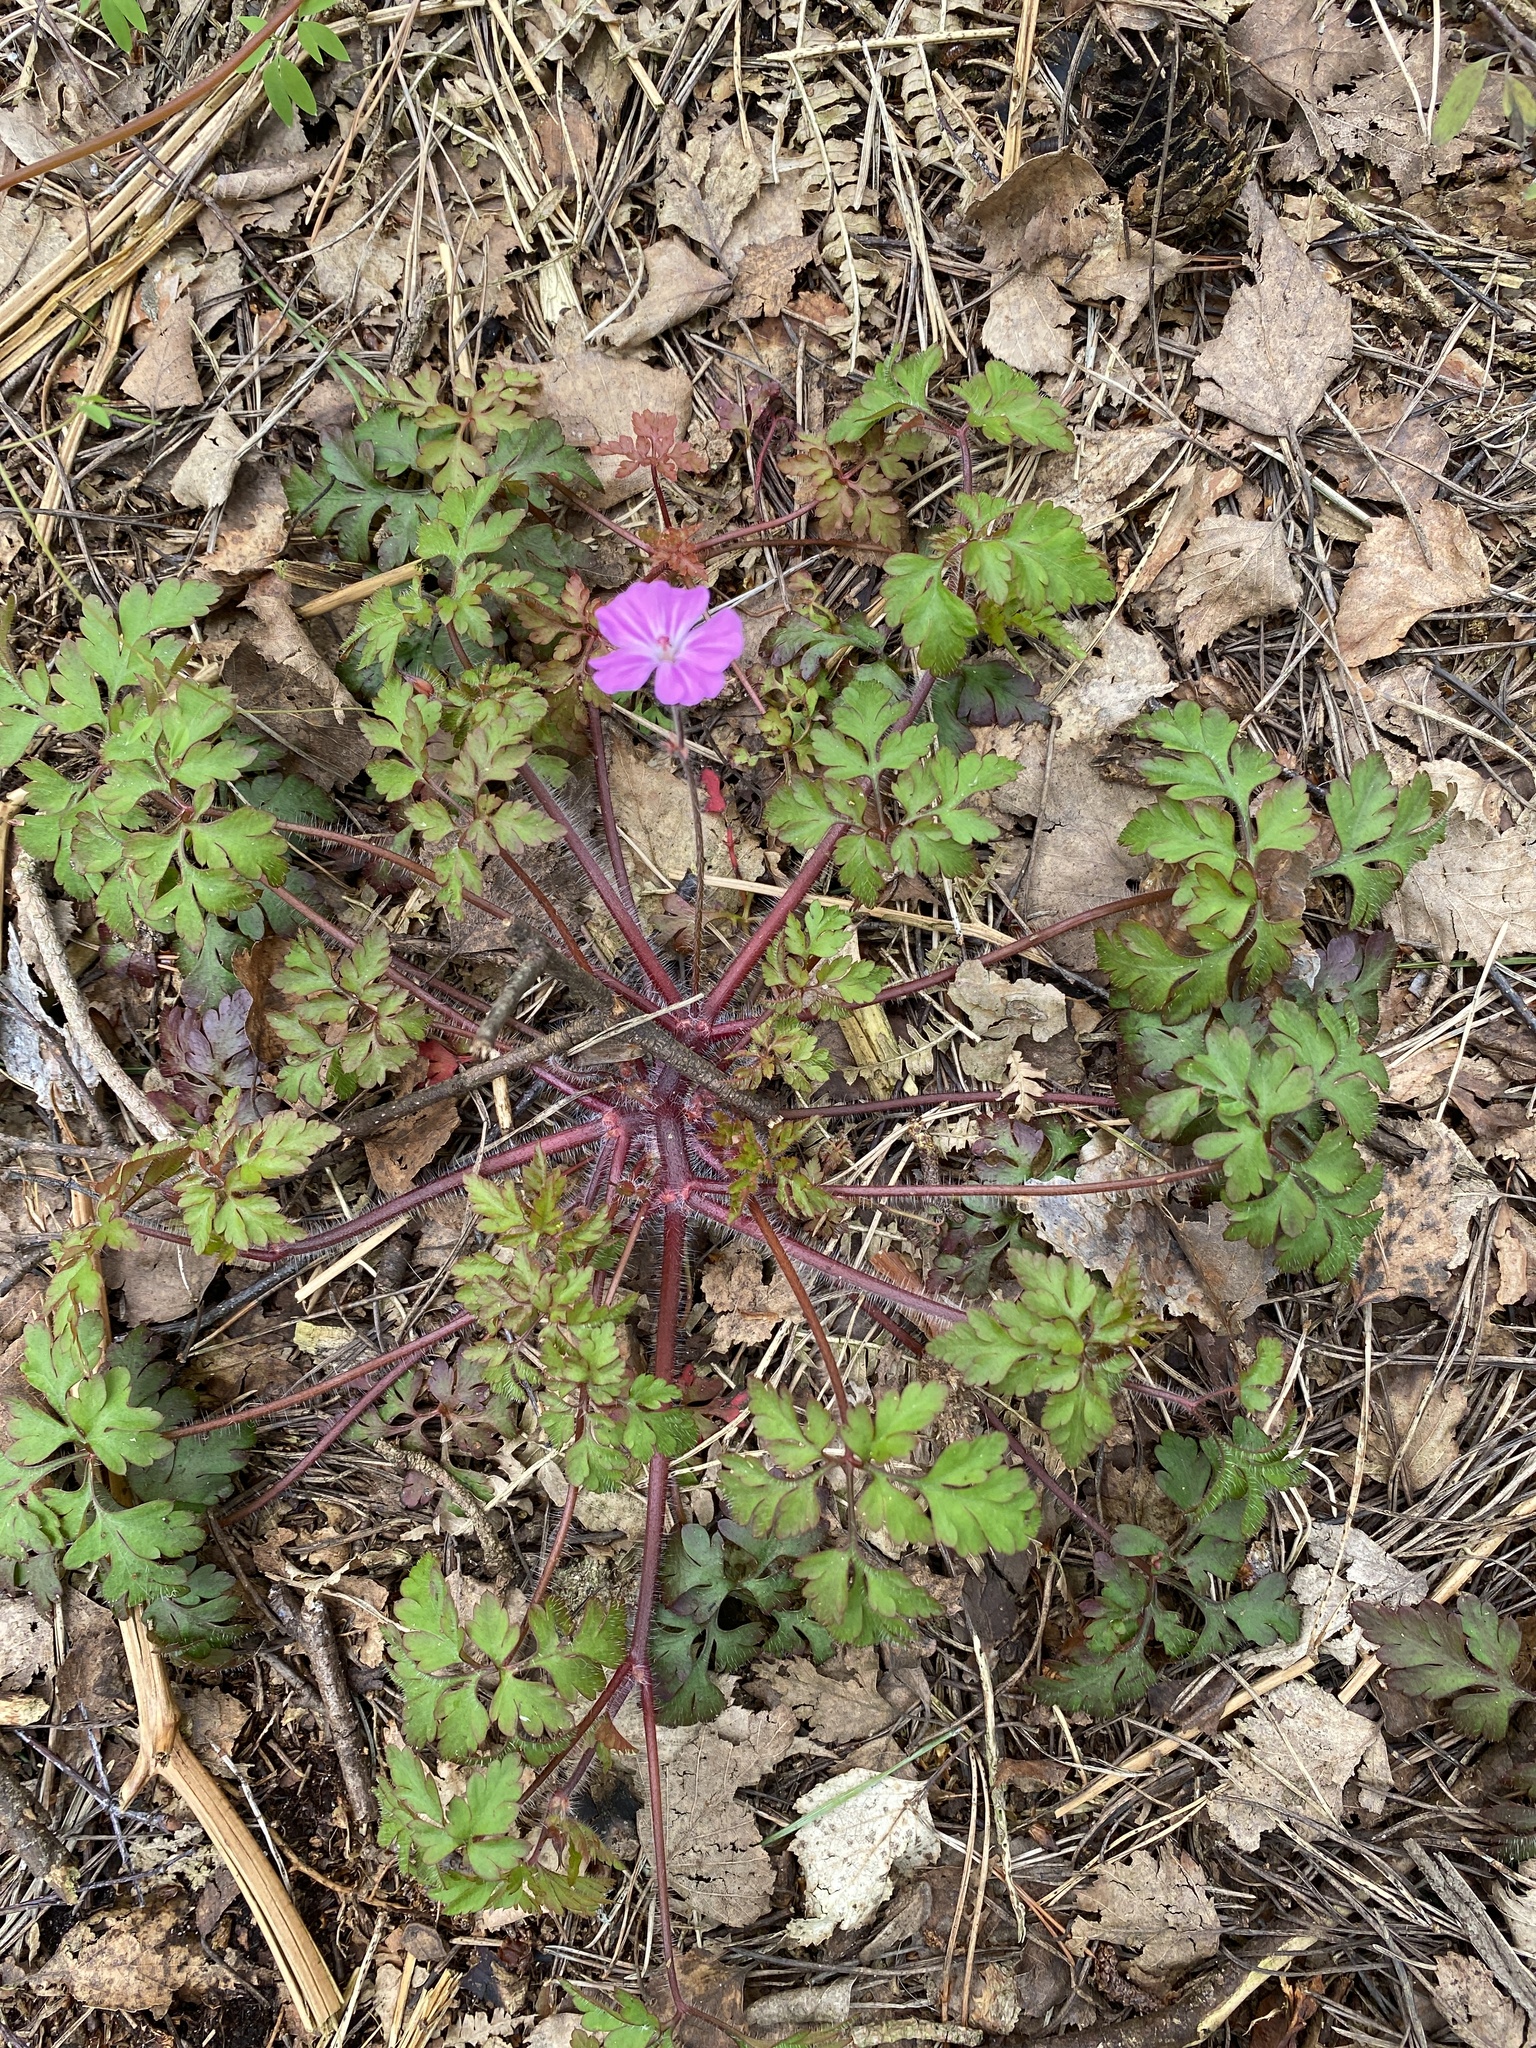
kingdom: Plantae
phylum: Tracheophyta
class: Magnoliopsida
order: Geraniales
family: Geraniaceae
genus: Geranium
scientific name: Geranium robertianum
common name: Herb-robert
